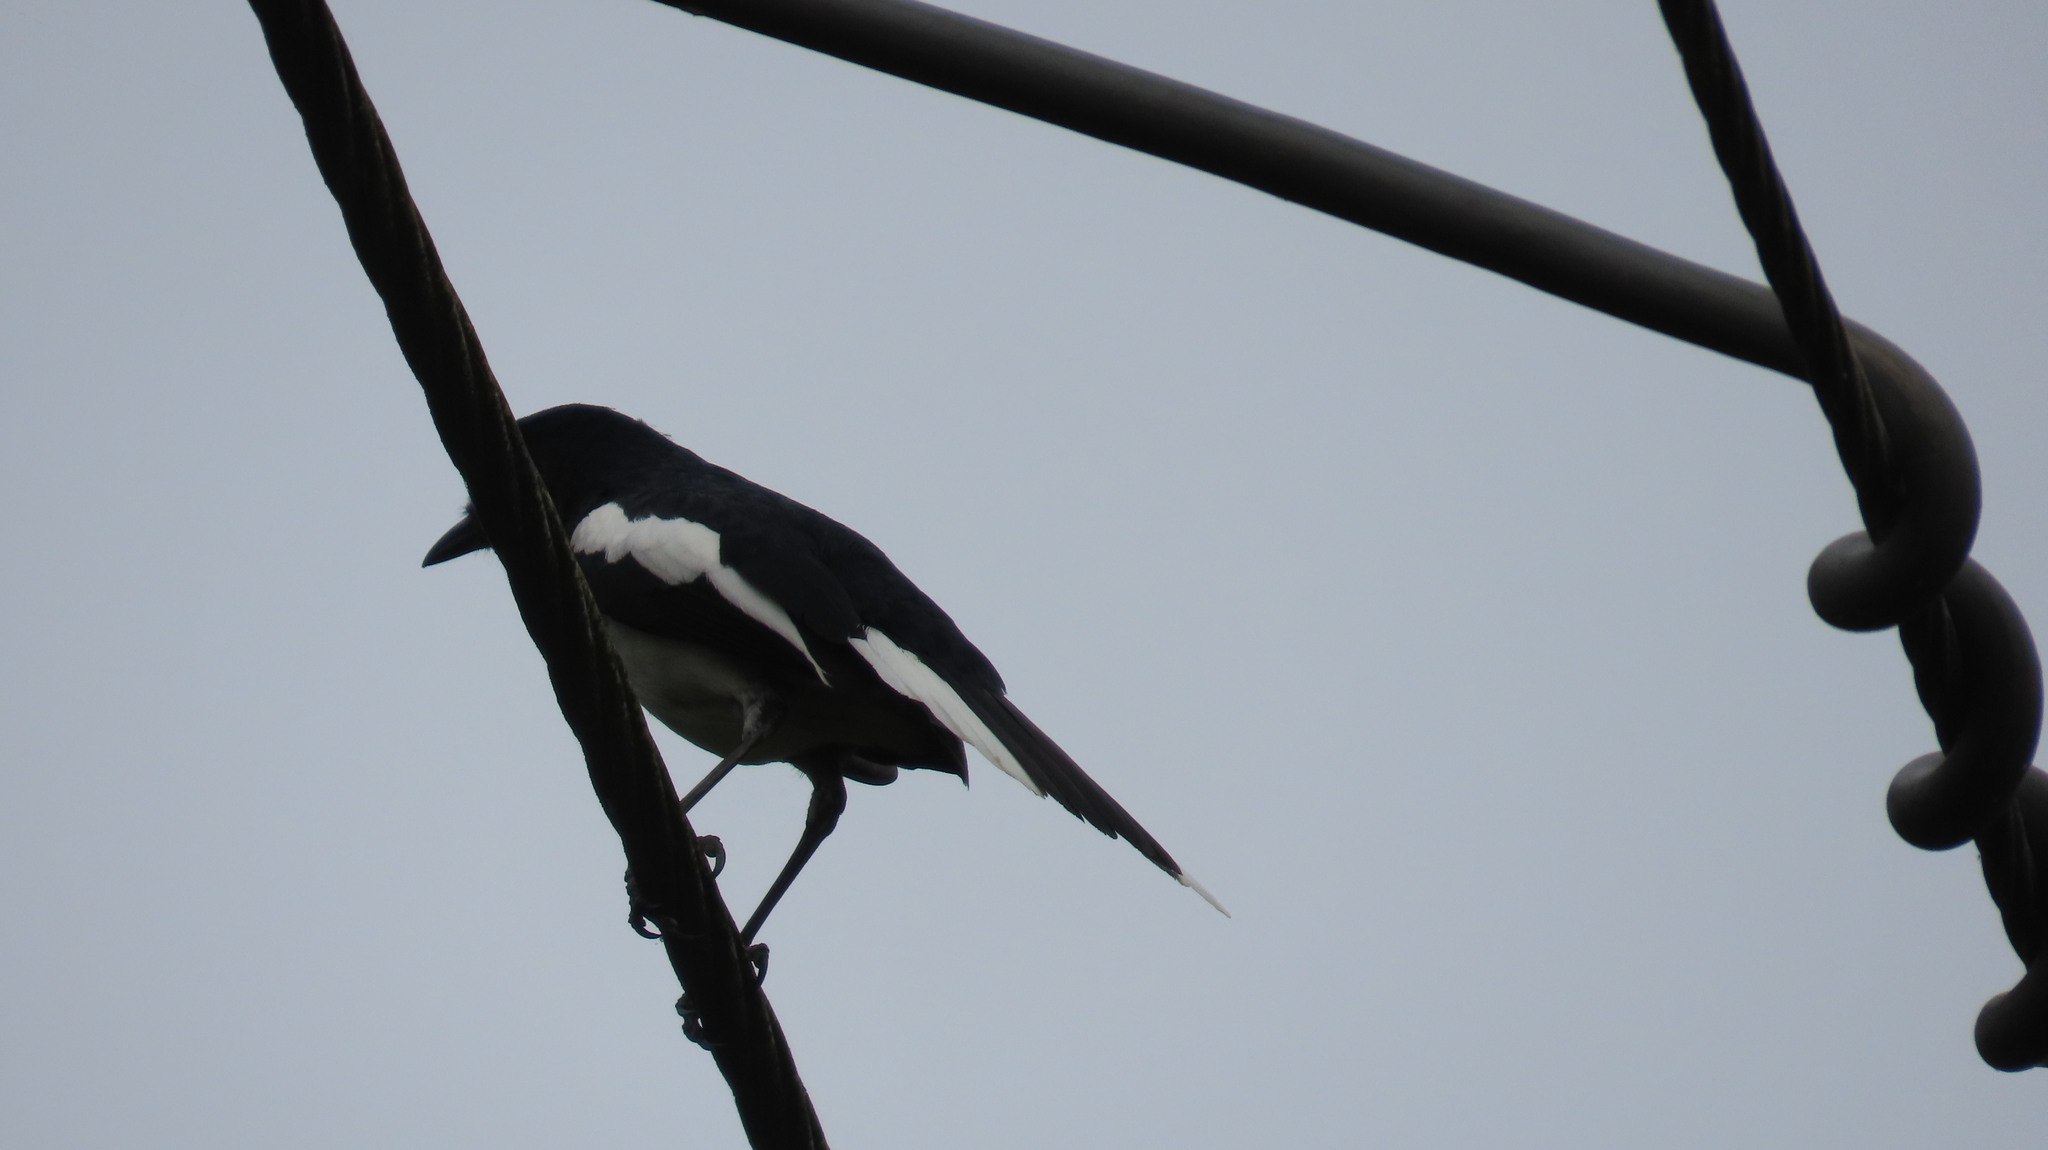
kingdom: Animalia
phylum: Chordata
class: Aves
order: Passeriformes
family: Muscicapidae
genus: Copsychus
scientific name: Copsychus saularis
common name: Oriental magpie-robin
